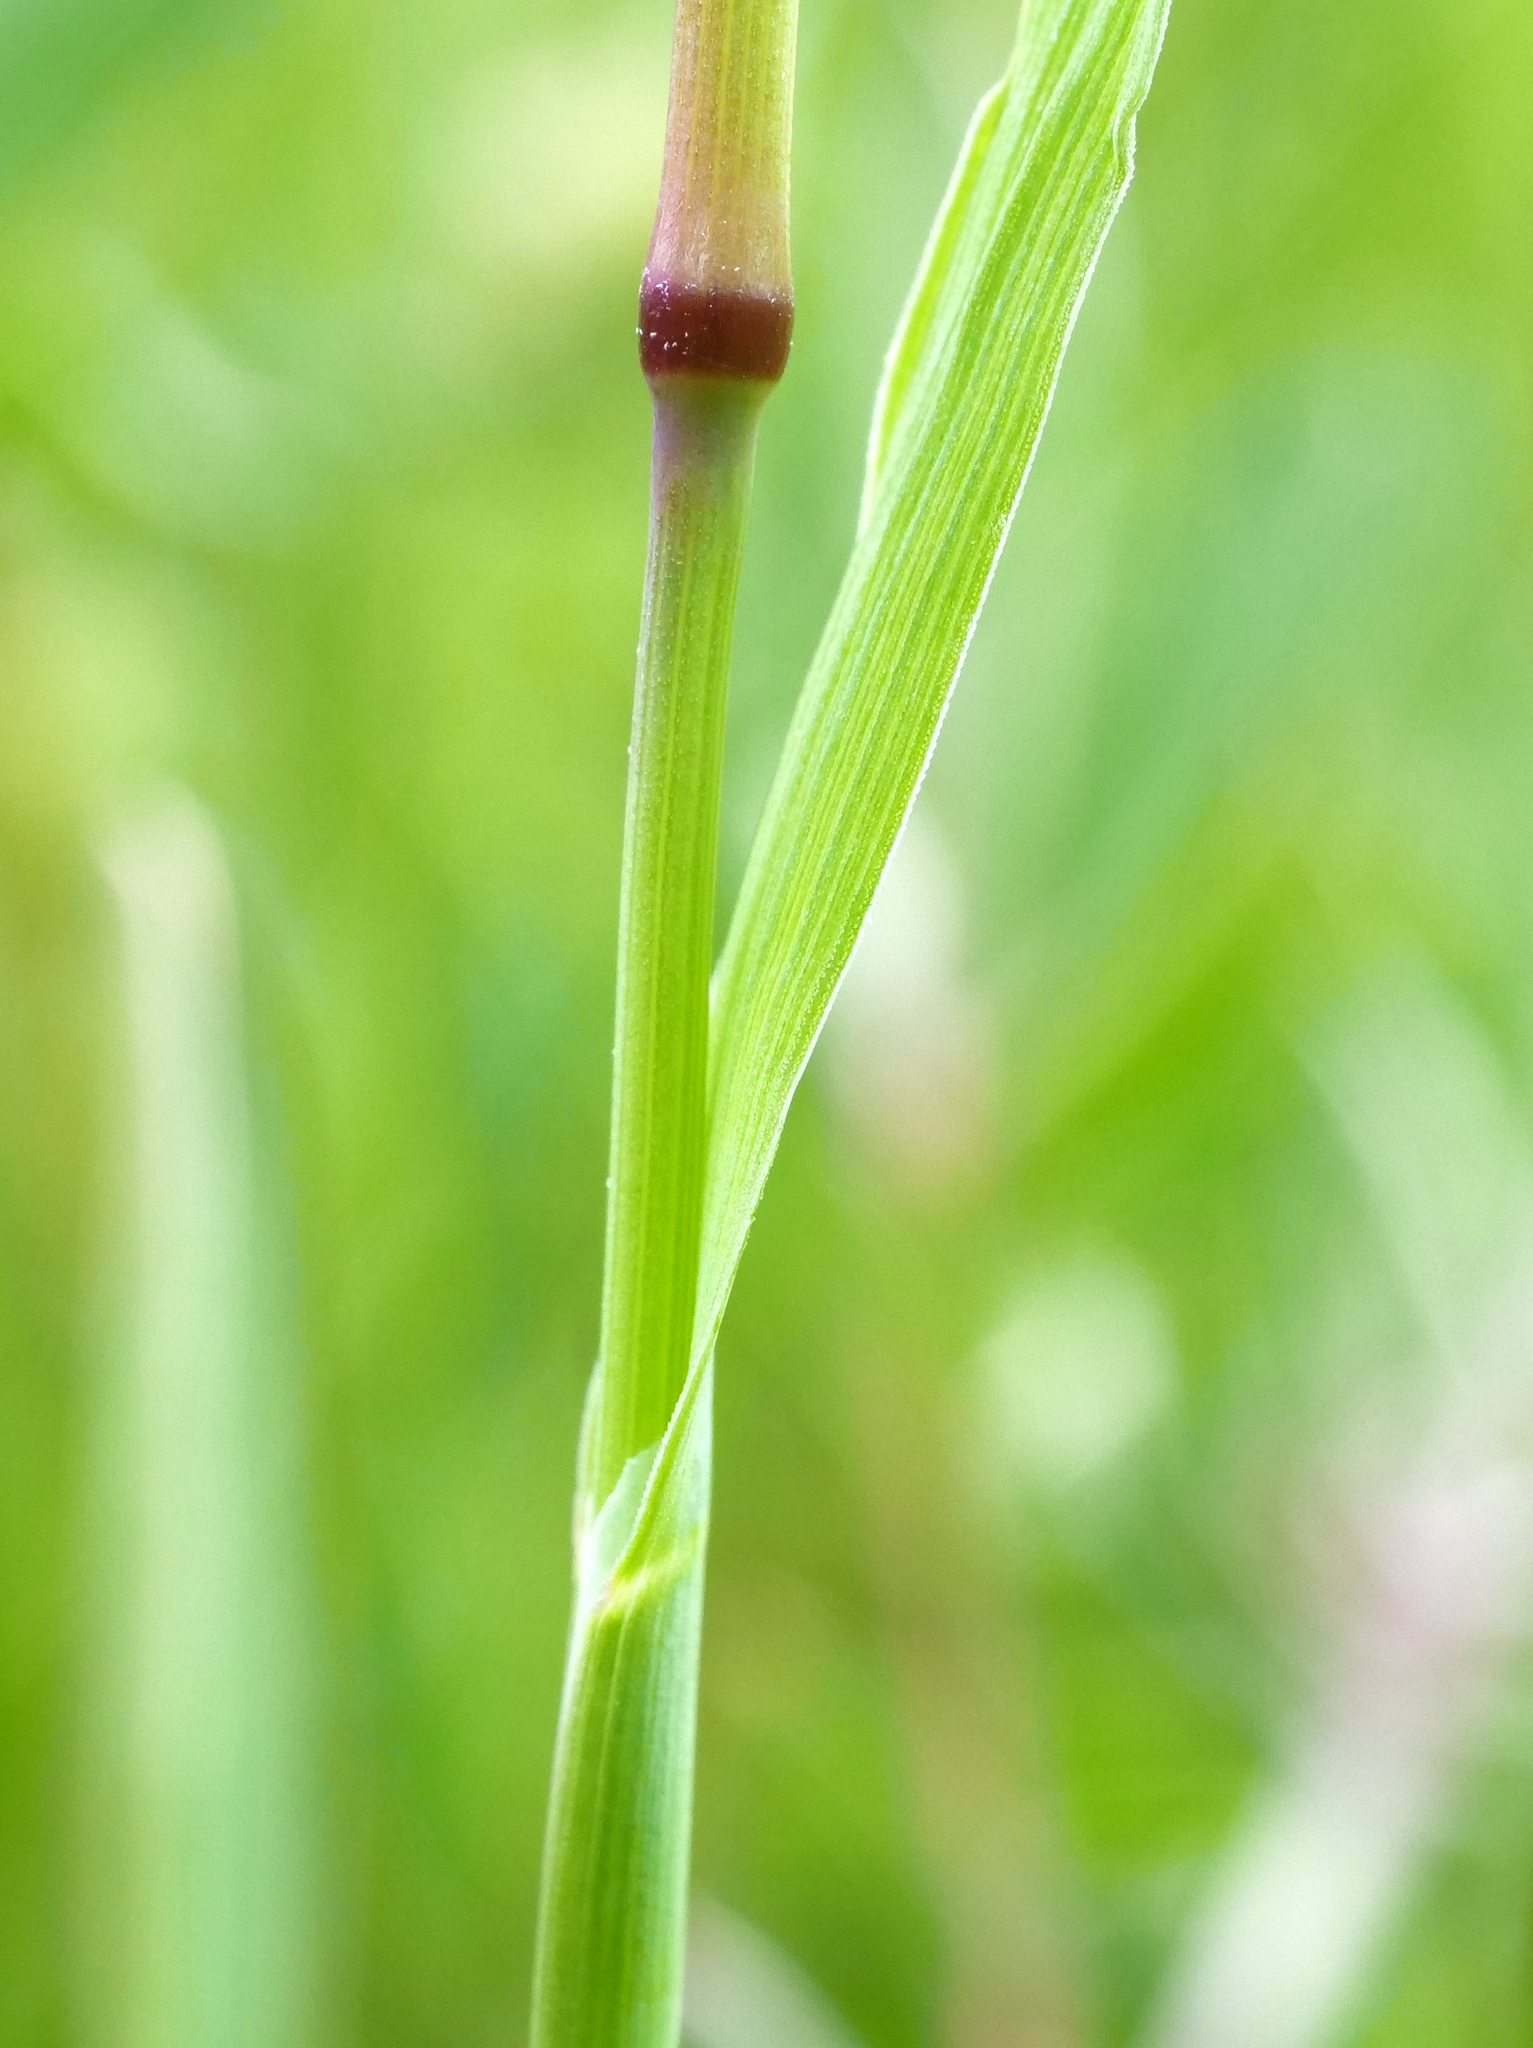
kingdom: Plantae
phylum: Tracheophyta
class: Liliopsida
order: Poales
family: Poaceae
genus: Briza
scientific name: Briza media
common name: Quaking grass
